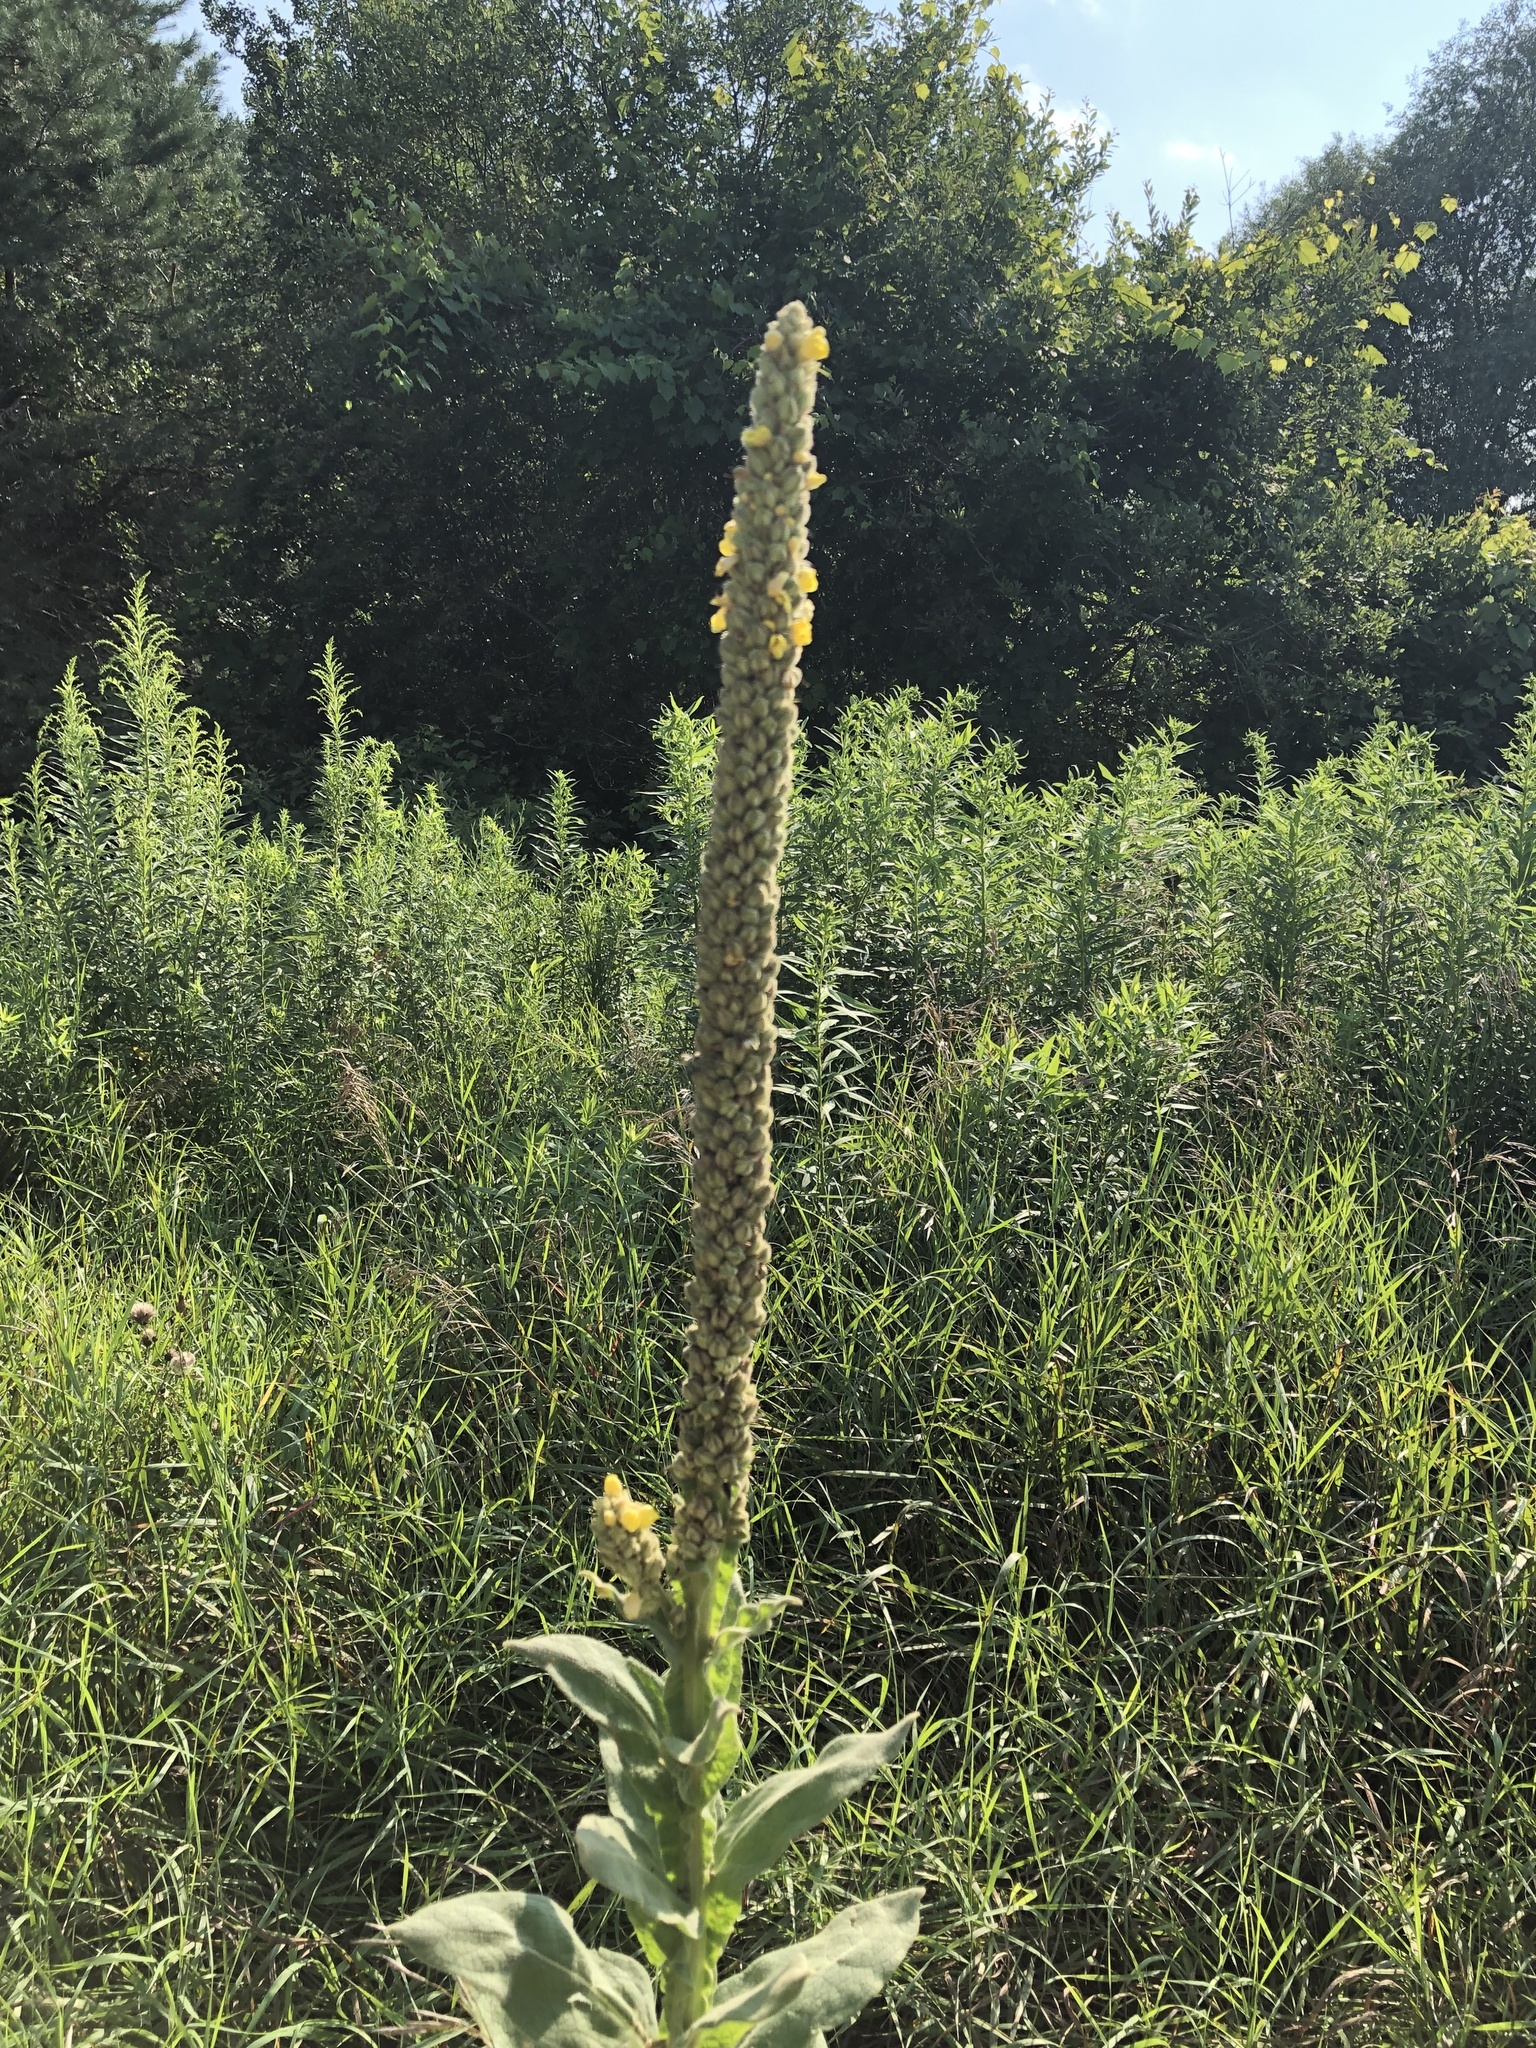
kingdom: Plantae
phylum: Tracheophyta
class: Magnoliopsida
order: Lamiales
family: Scrophulariaceae
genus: Verbascum
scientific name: Verbascum thapsus
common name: Common mullein
